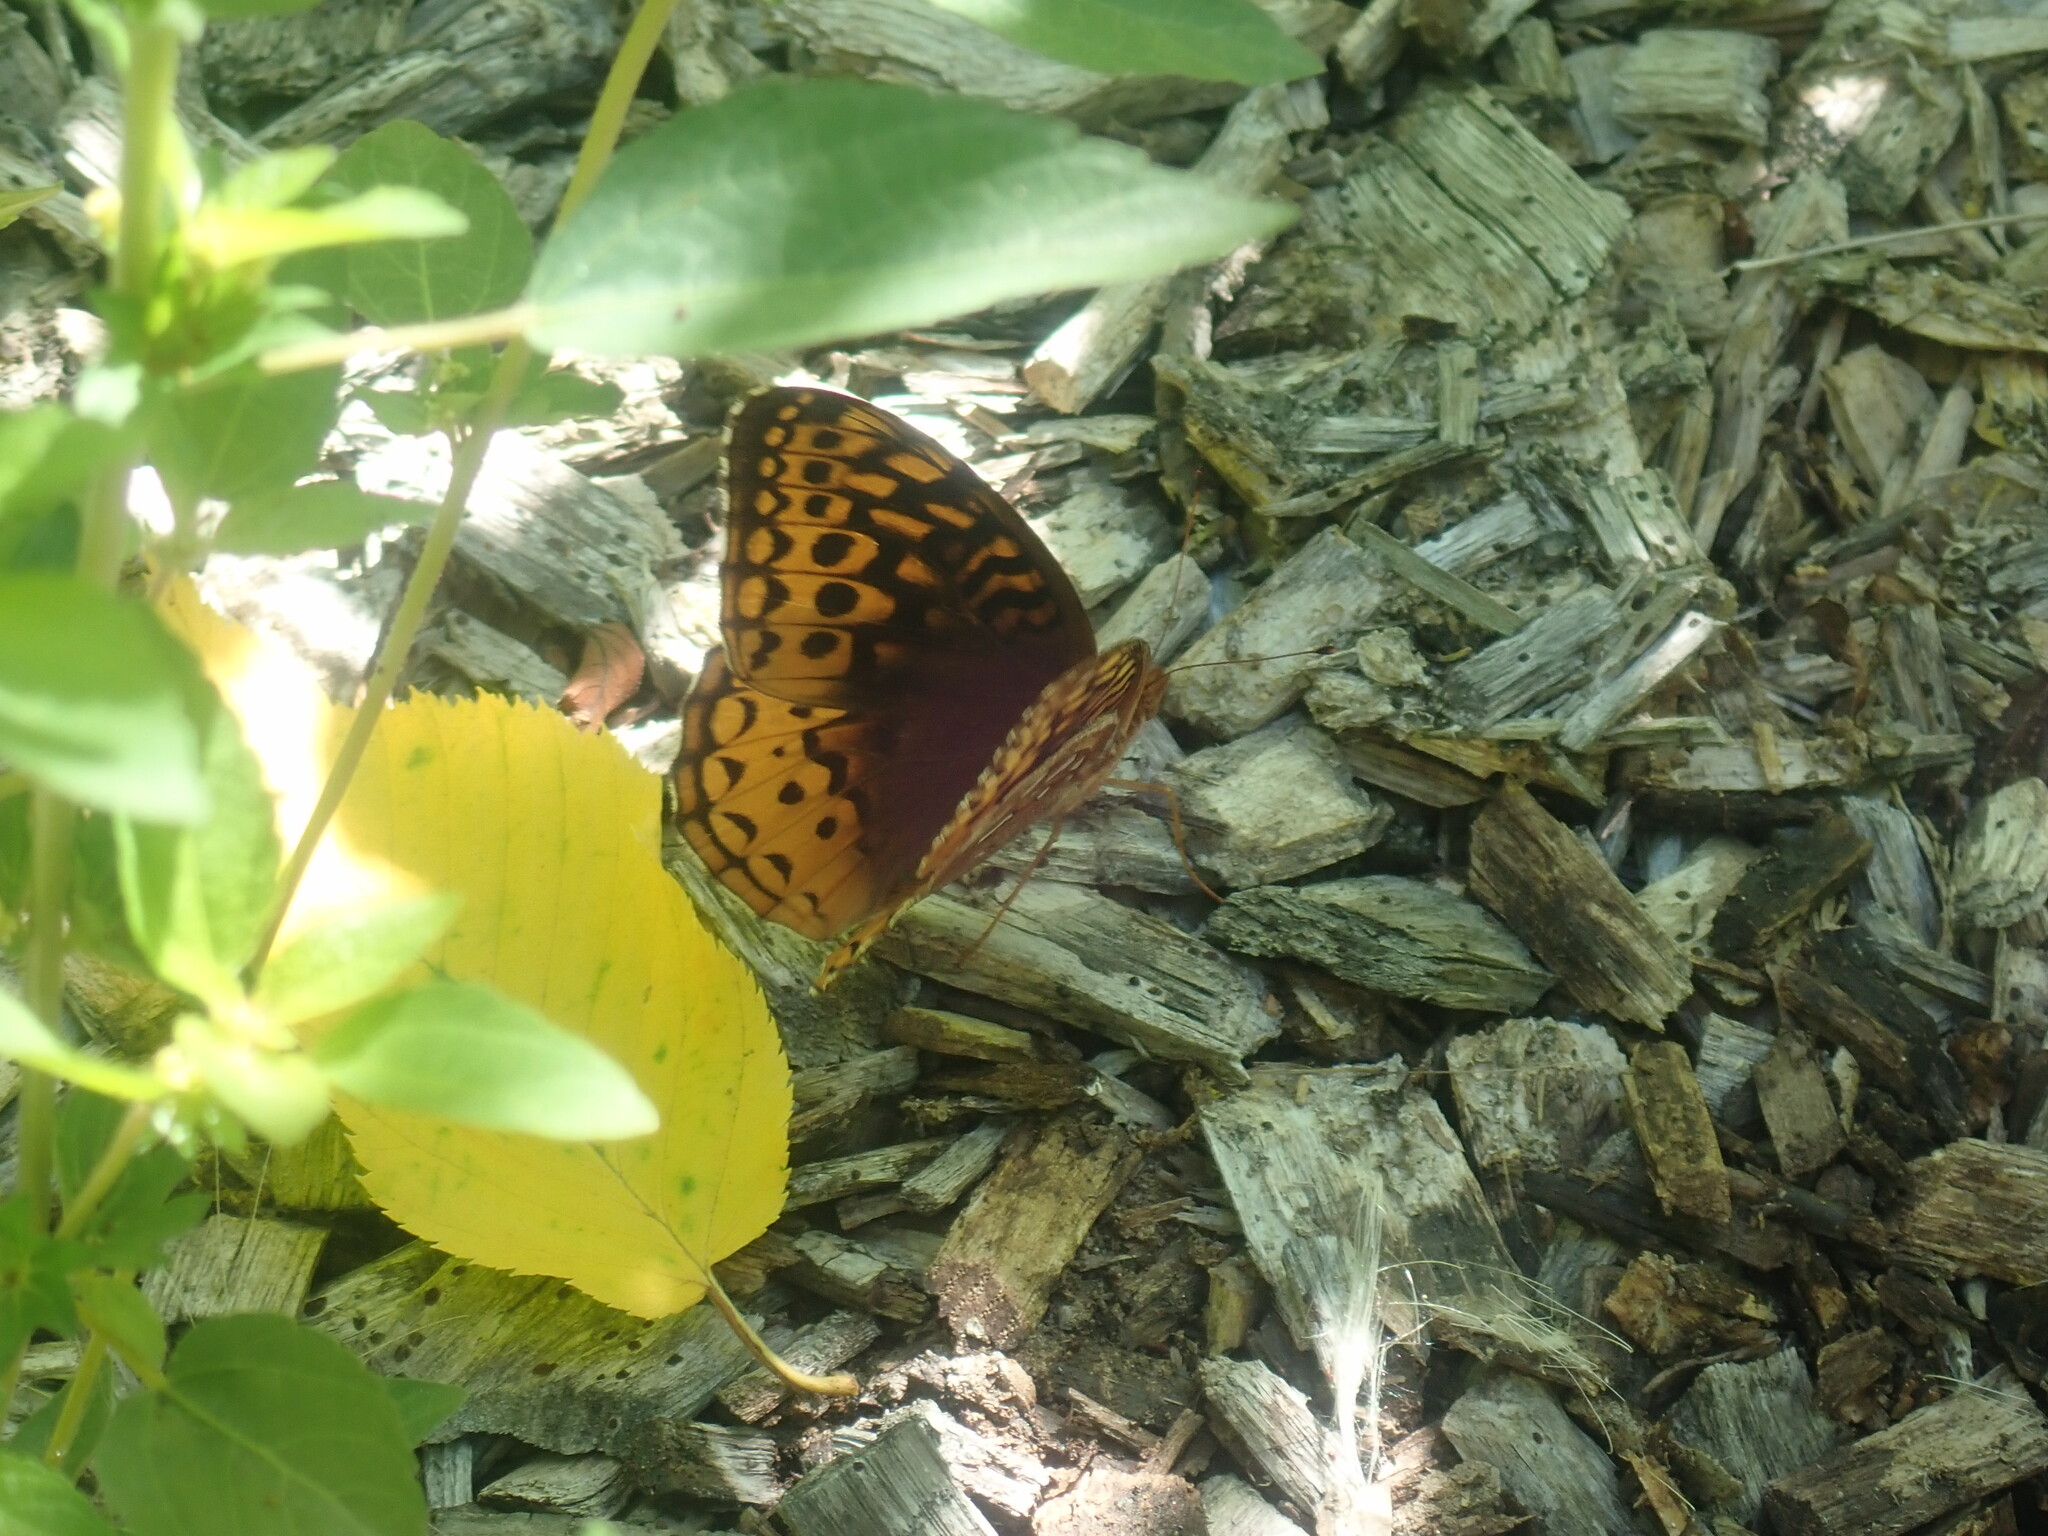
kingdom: Animalia
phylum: Arthropoda
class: Insecta
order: Lepidoptera
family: Nymphalidae
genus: Speyeria
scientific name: Speyeria cybele
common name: Great spangled fritillary
